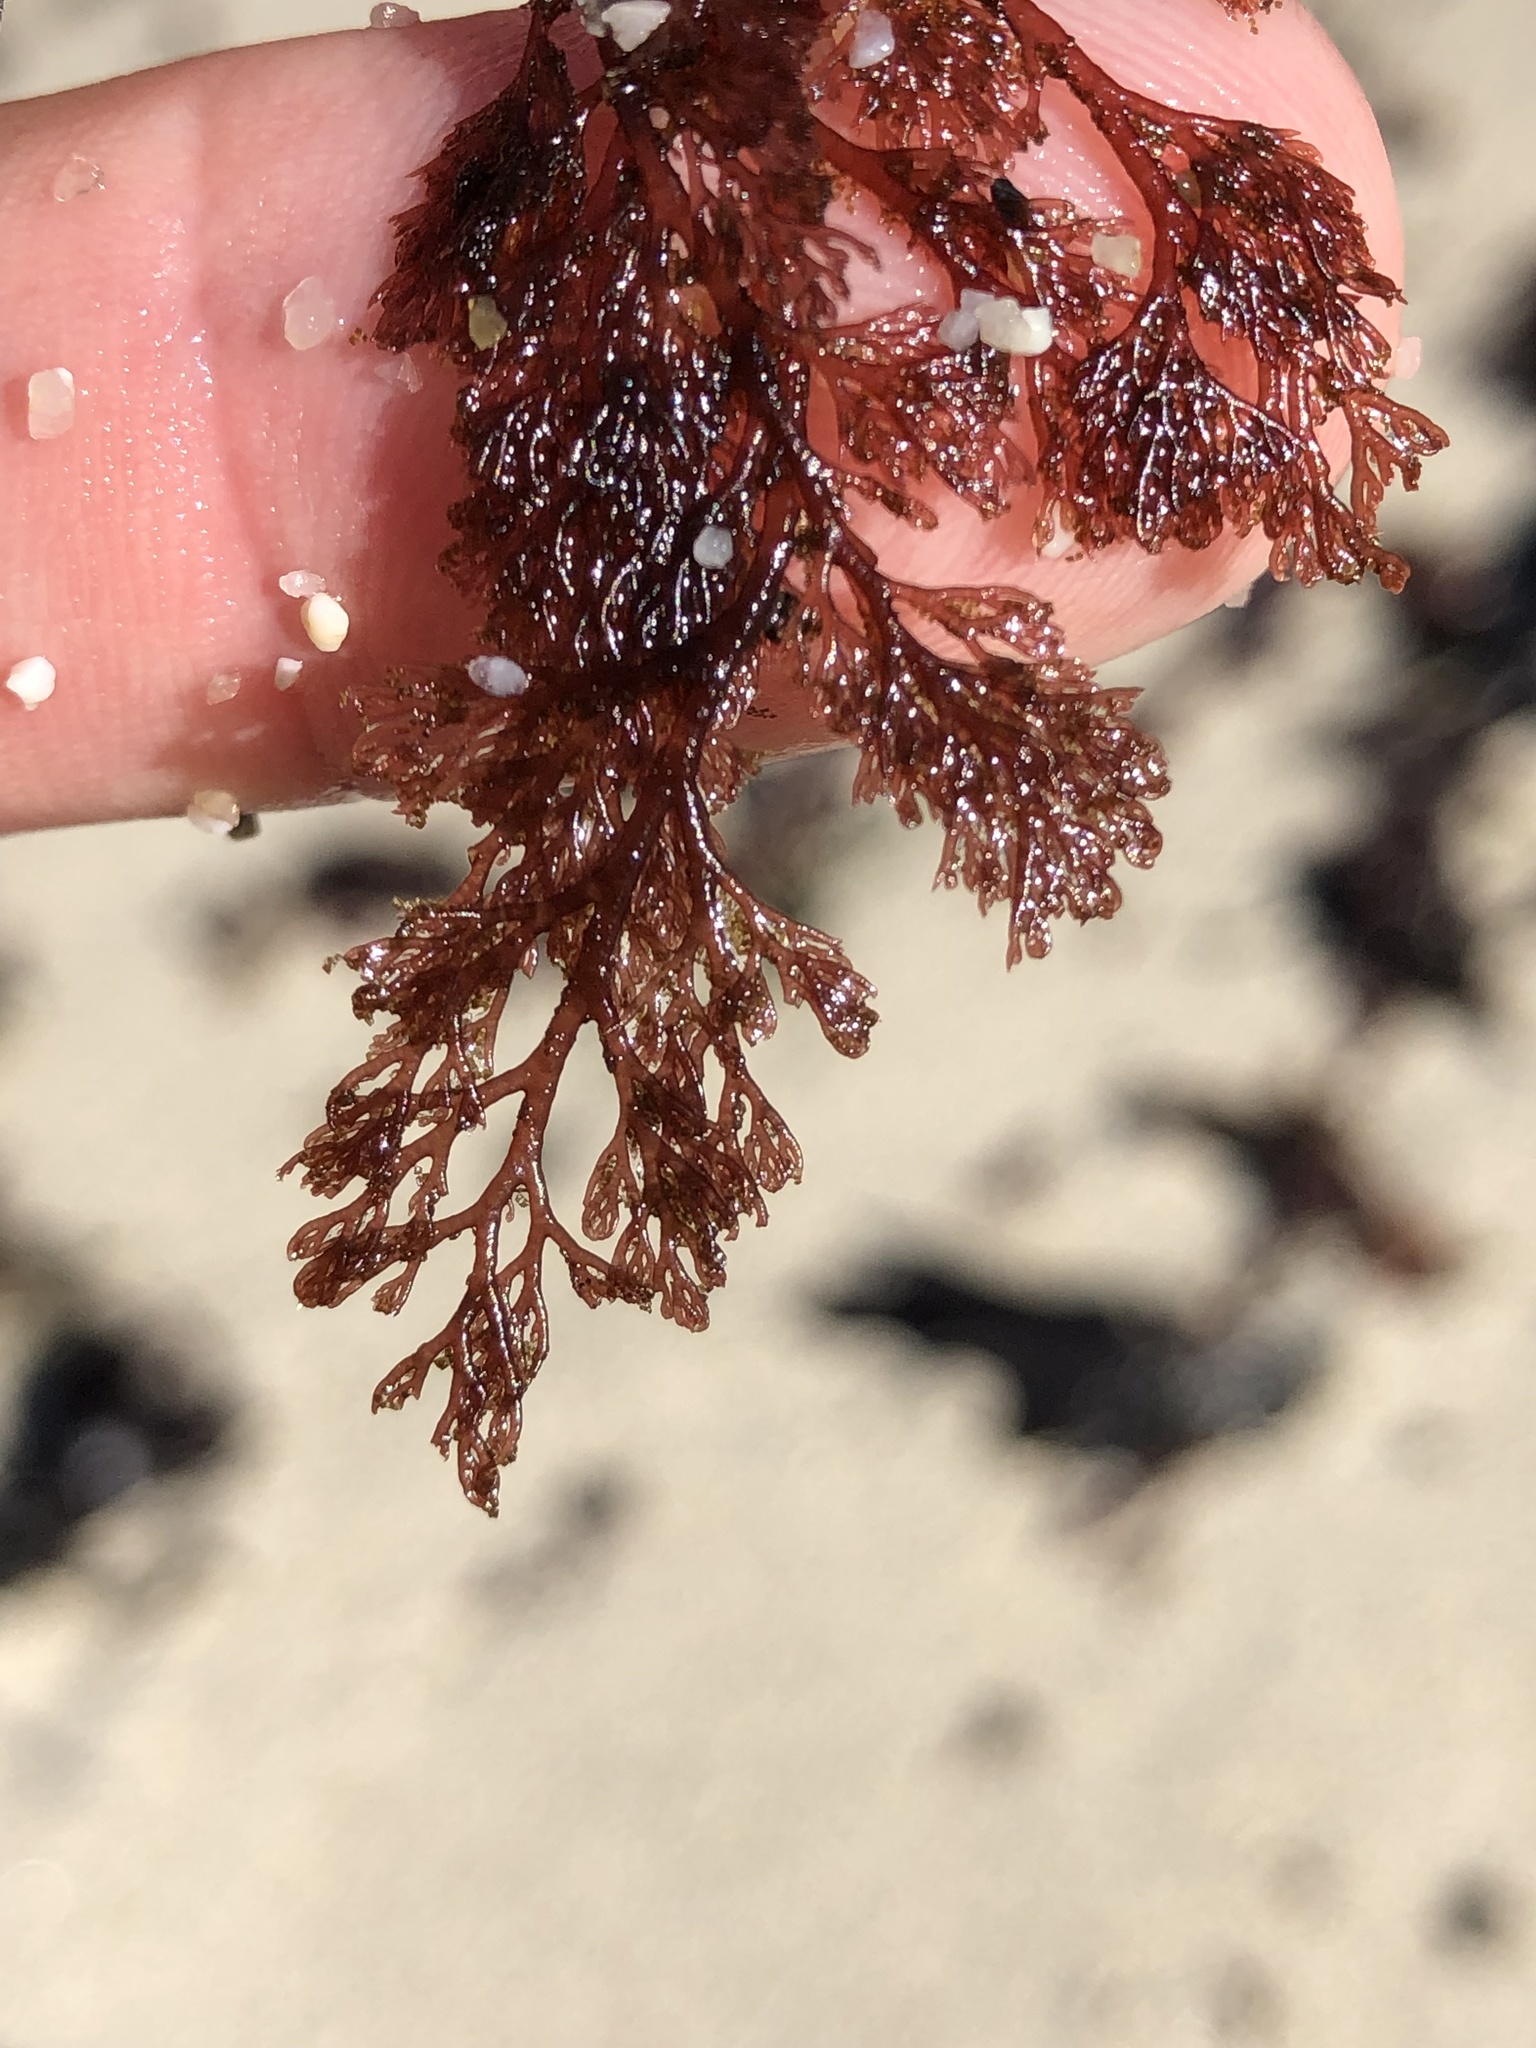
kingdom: Plantae
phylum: Rhodophyta
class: Florideophyceae
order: Ceramiales
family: Ceramiaceae
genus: Microcladia
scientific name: Microcladia coulteri
